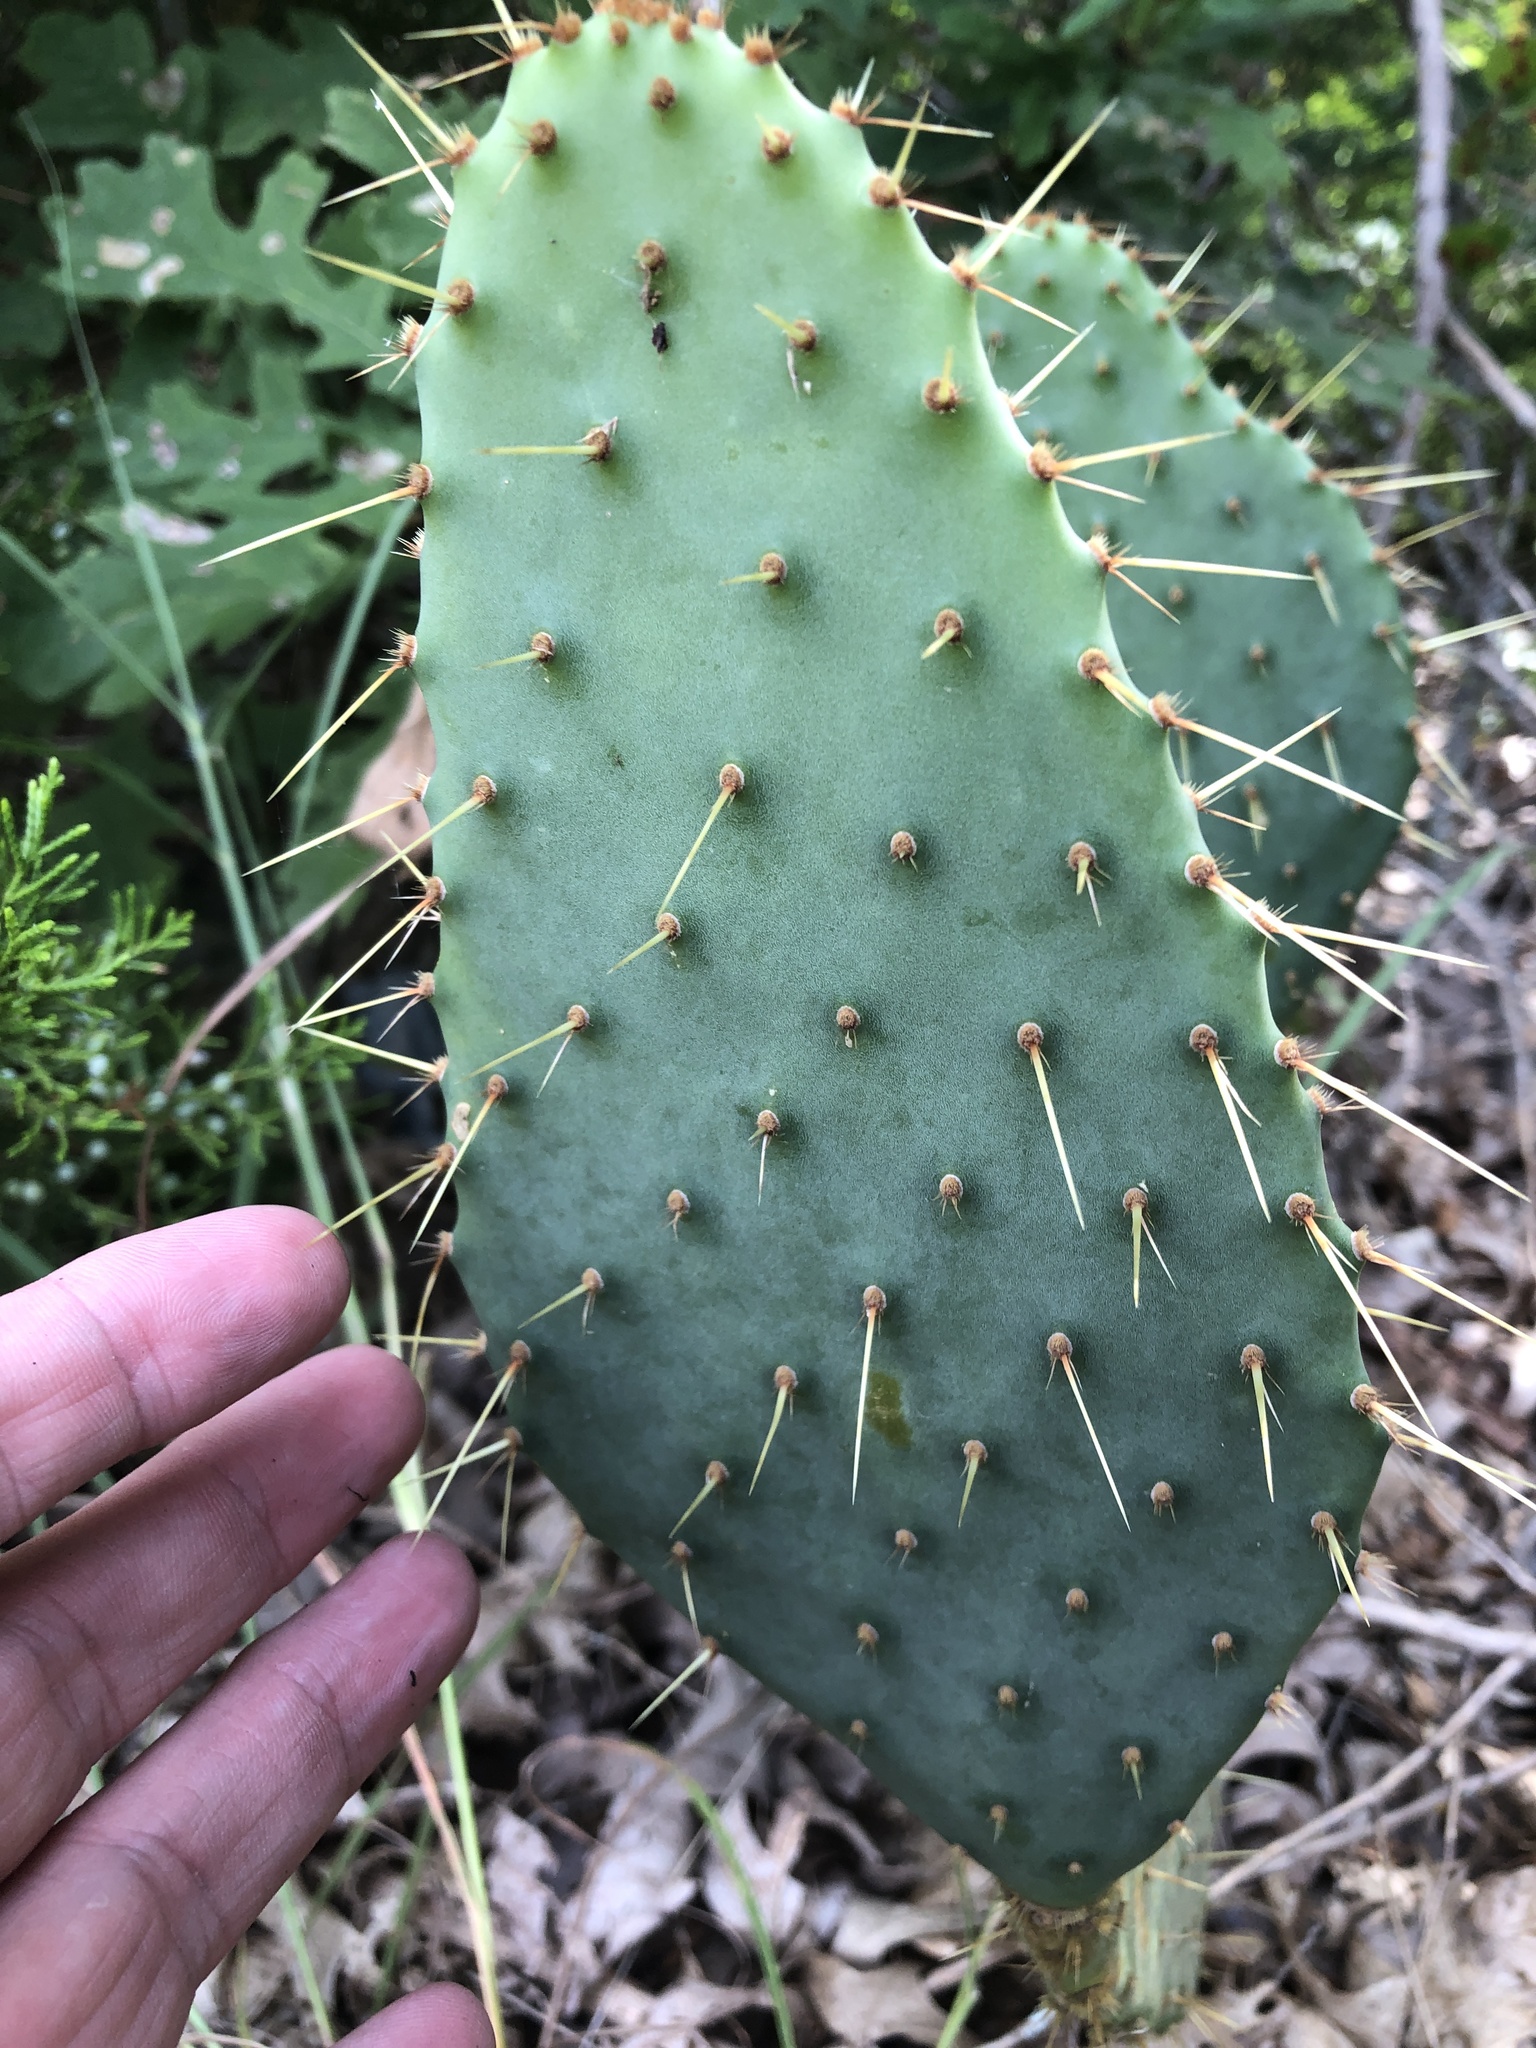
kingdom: Plantae
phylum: Tracheophyta
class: Magnoliopsida
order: Caryophyllales
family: Cactaceae
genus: Opuntia
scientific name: Opuntia engelmannii
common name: Cactus-apple
